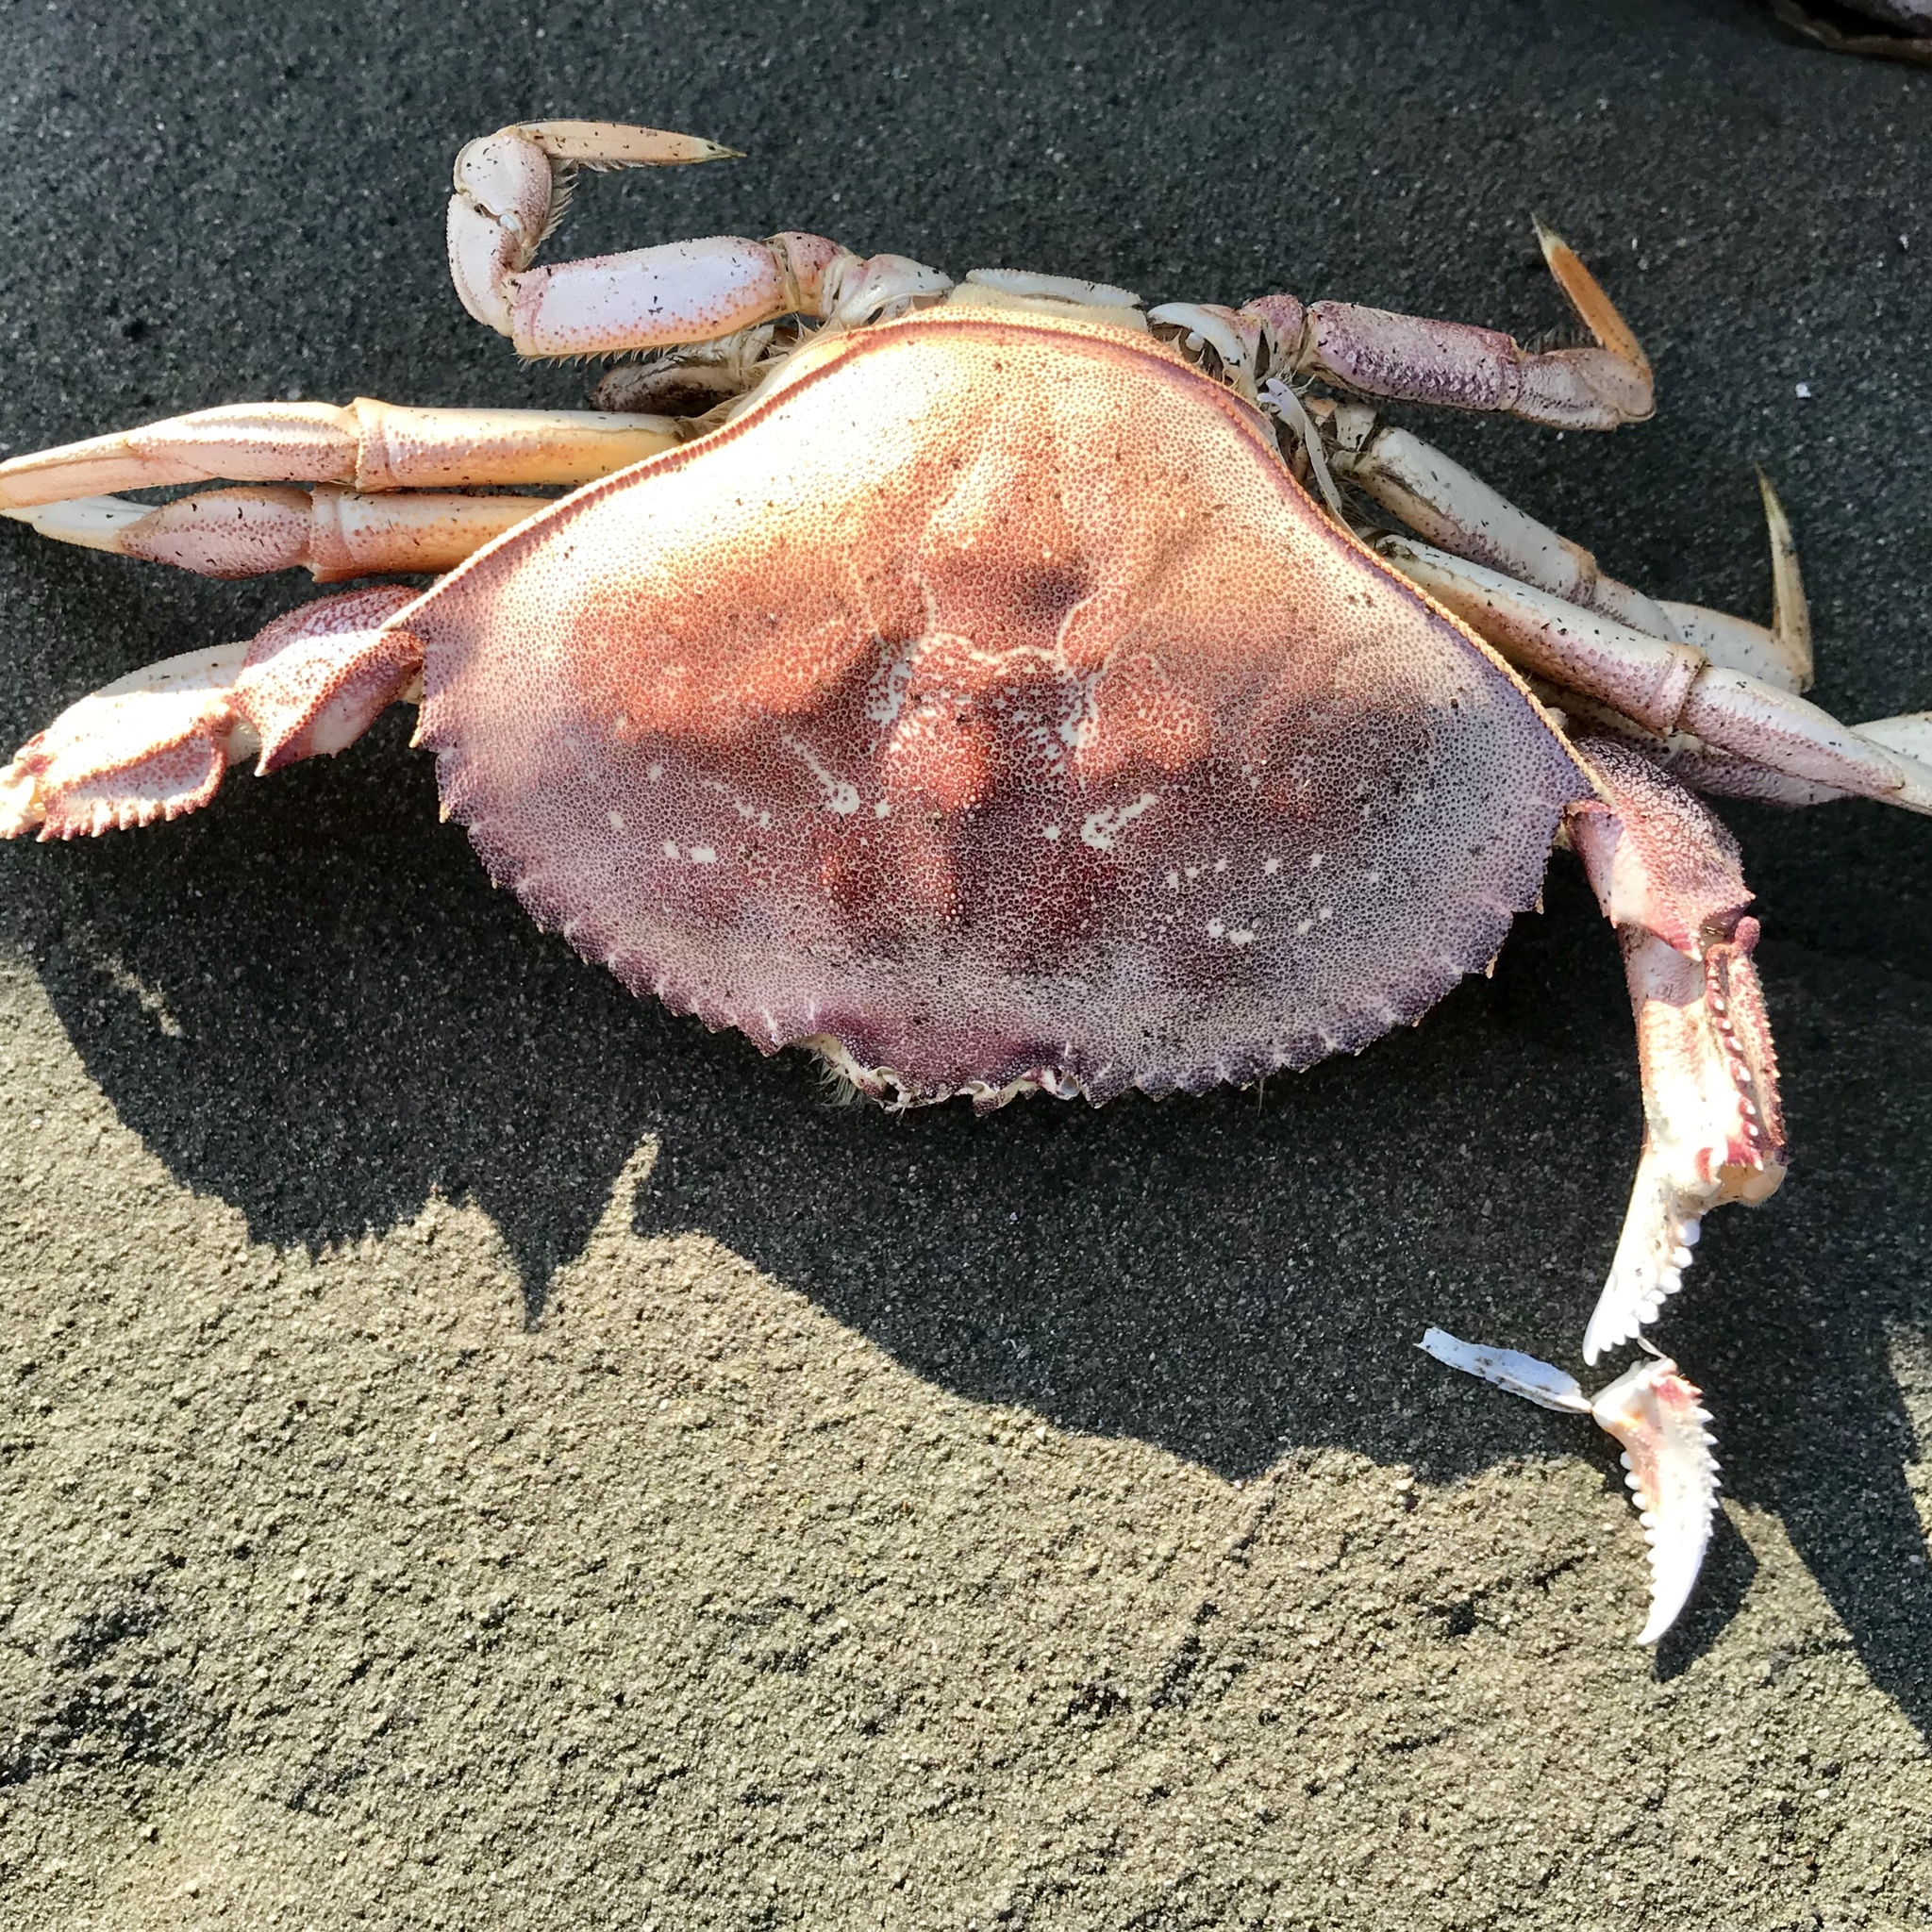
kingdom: Animalia
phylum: Arthropoda
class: Malacostraca
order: Decapoda
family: Cancridae
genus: Metacarcinus
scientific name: Metacarcinus magister
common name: Californian crab
